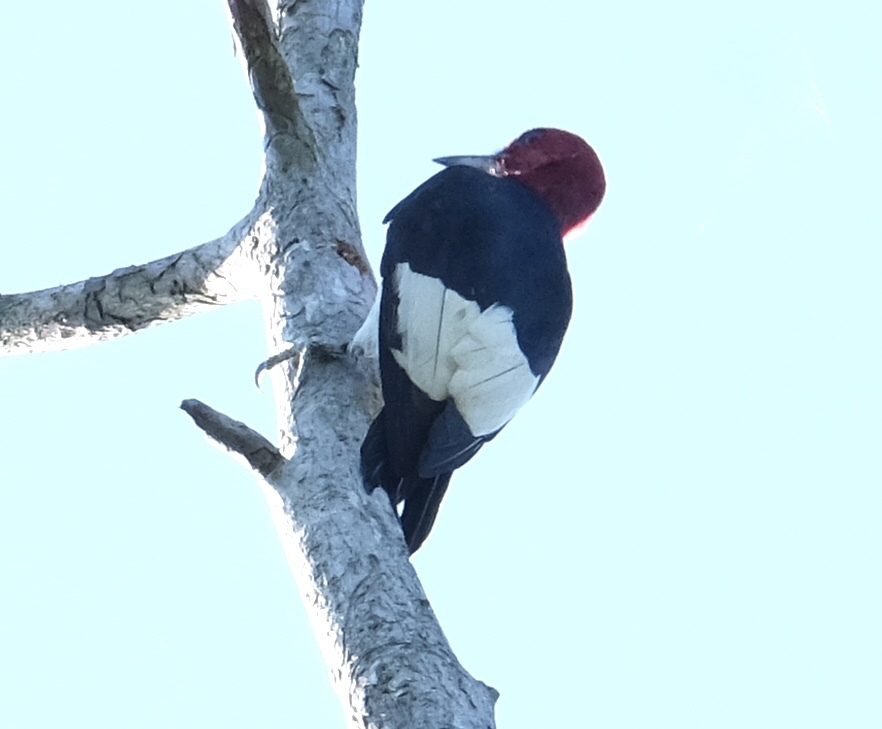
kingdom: Animalia
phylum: Chordata
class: Aves
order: Piciformes
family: Picidae
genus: Melanerpes
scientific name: Melanerpes erythrocephalus
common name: Red-headed woodpecker
